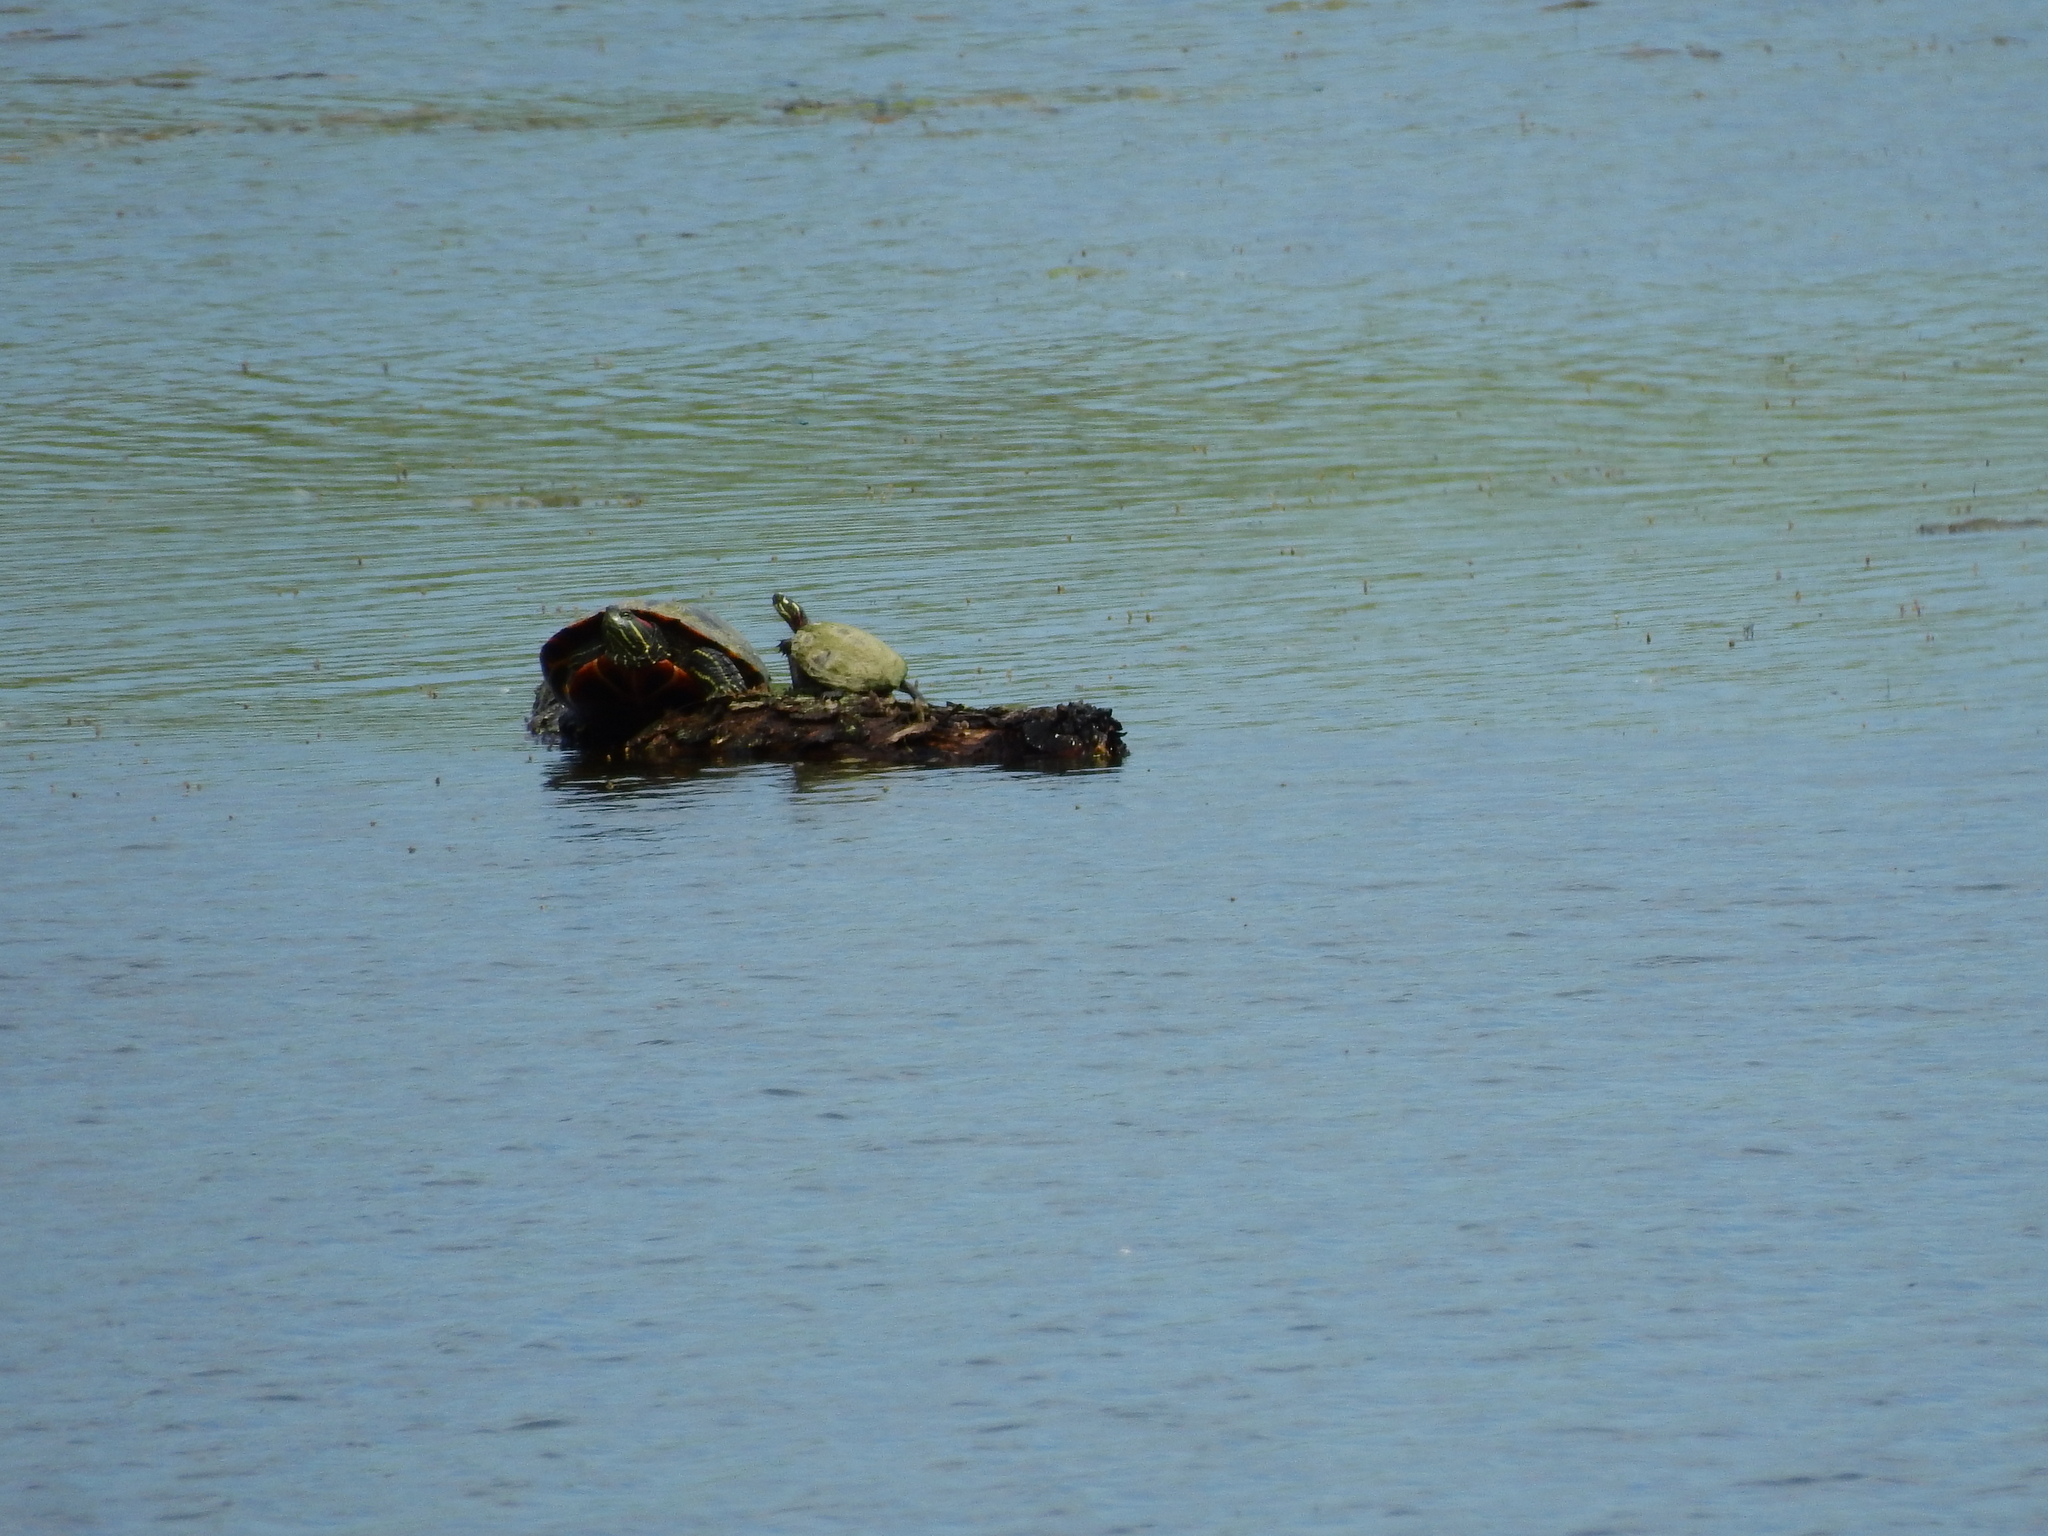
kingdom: Animalia
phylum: Chordata
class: Testudines
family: Emydidae
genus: Chrysemys
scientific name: Chrysemys picta
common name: Painted turtle
